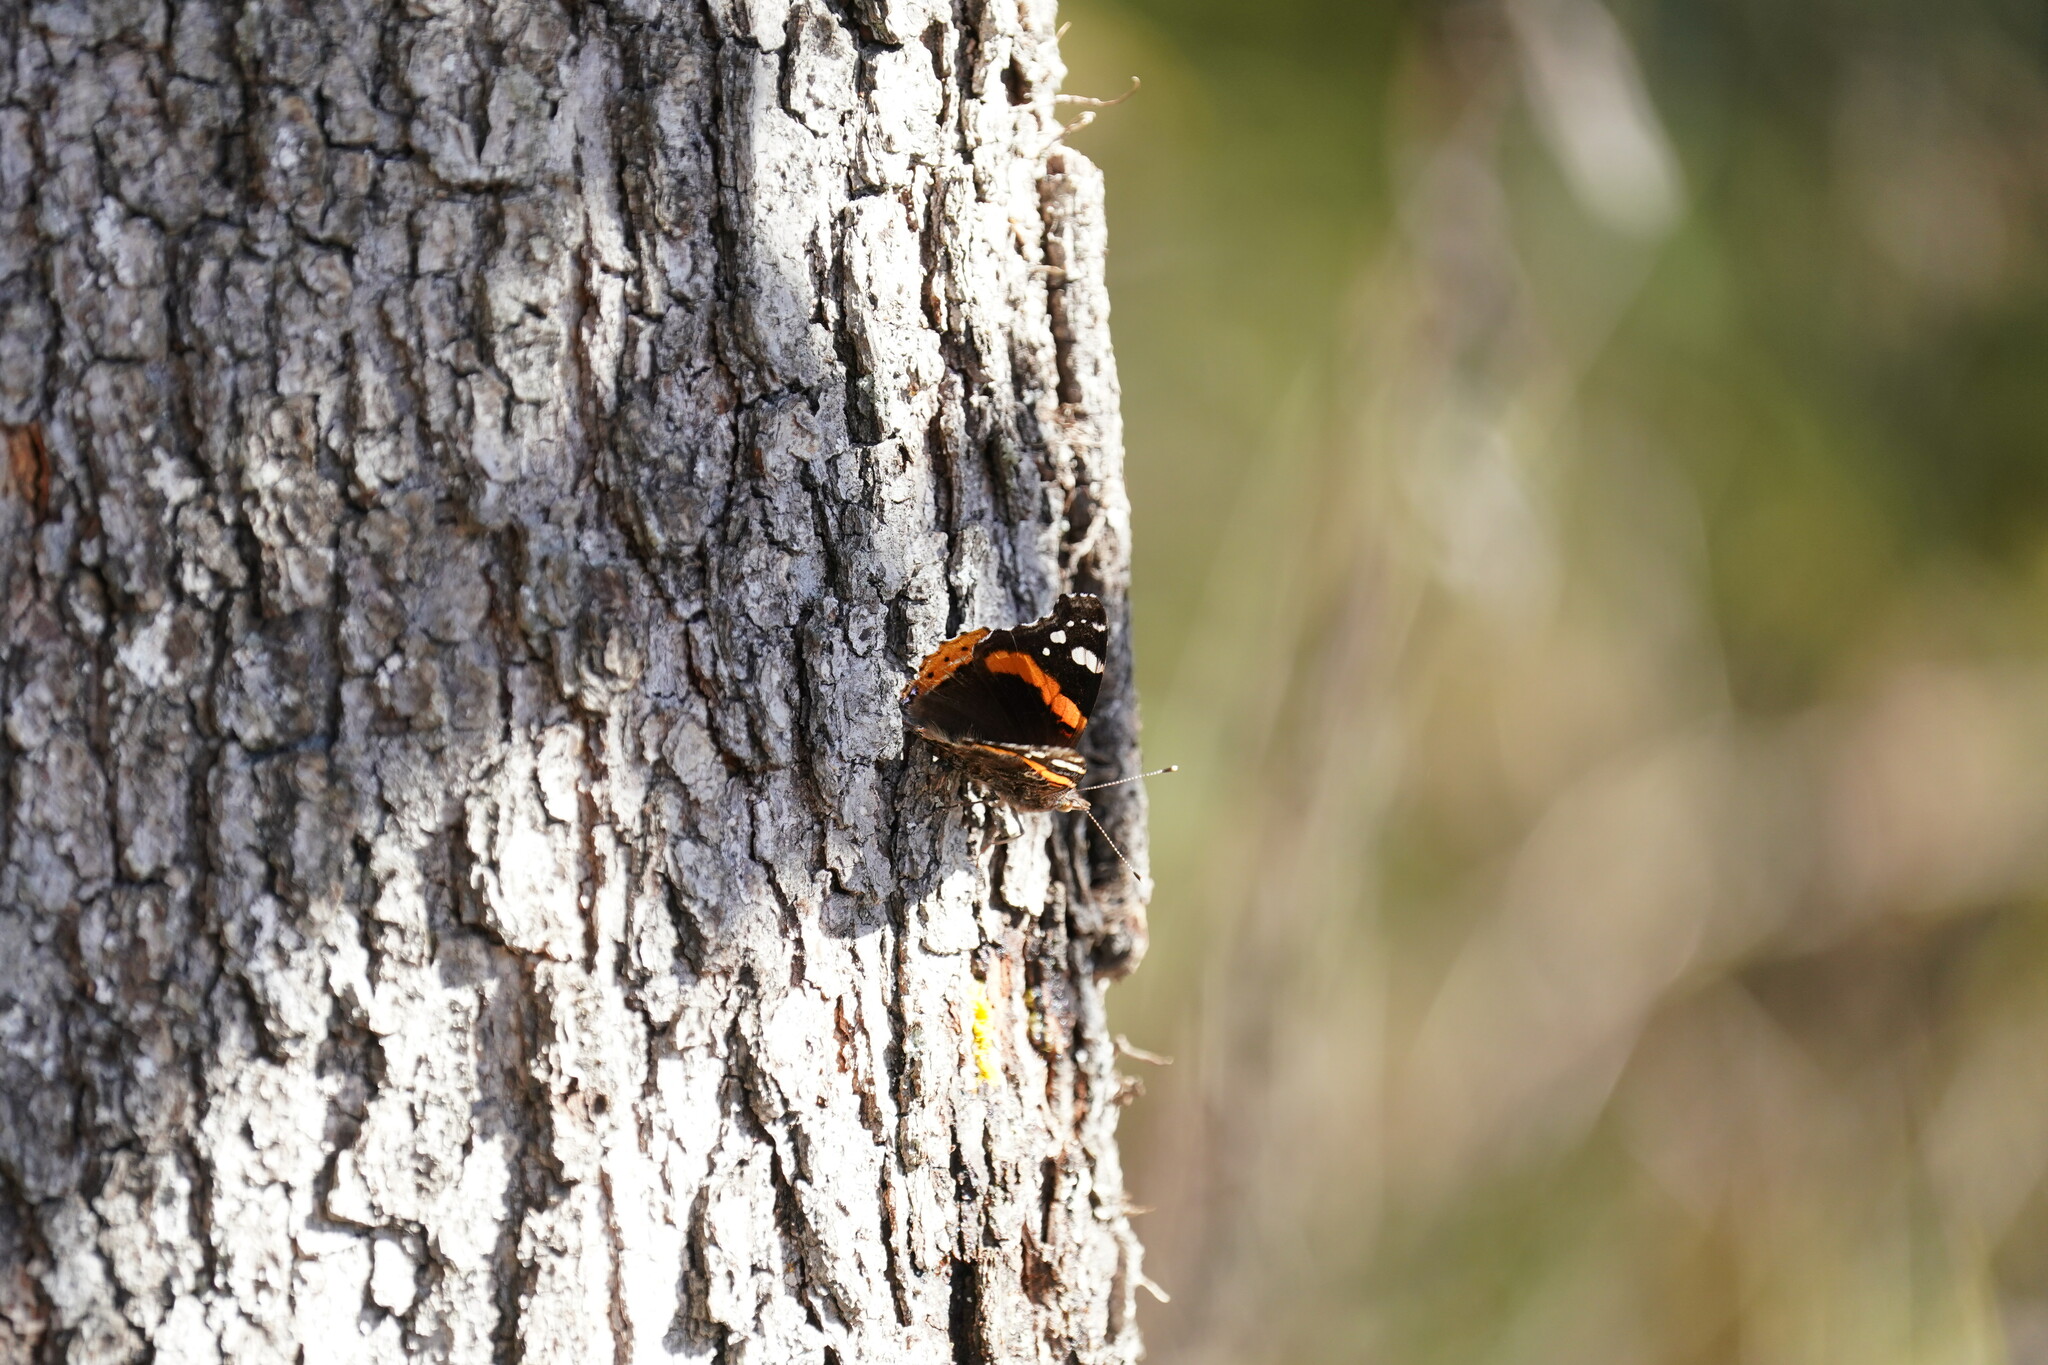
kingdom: Animalia
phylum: Arthropoda
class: Insecta
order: Lepidoptera
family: Nymphalidae
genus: Vanessa
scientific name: Vanessa atalanta
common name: Red admiral
